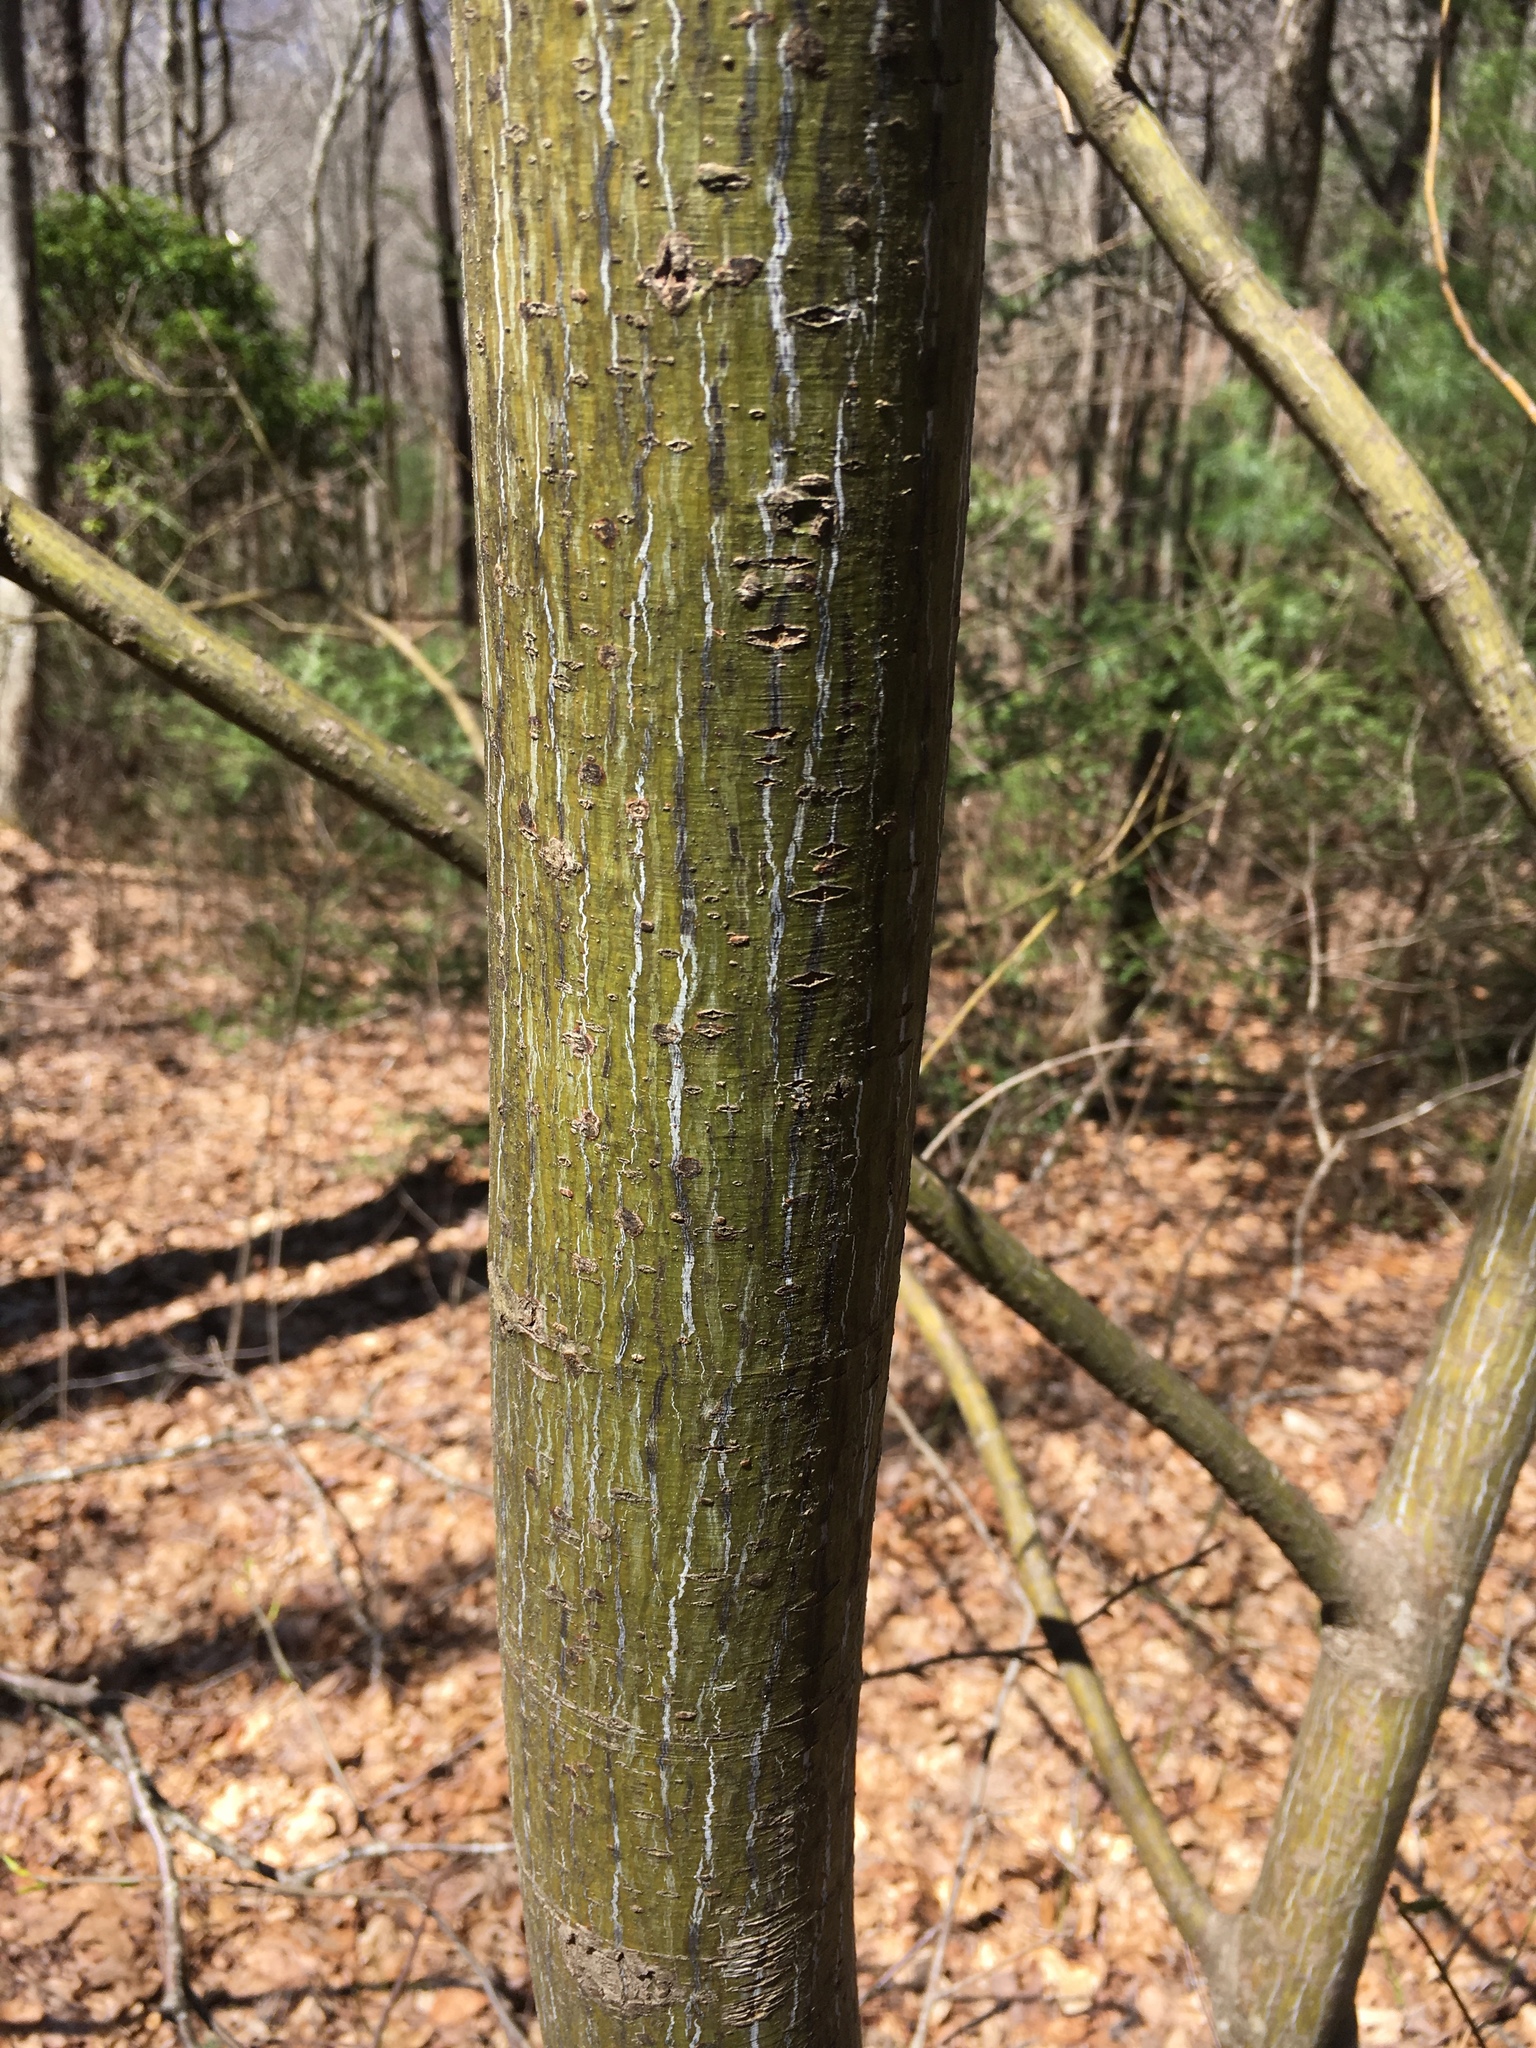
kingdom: Plantae
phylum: Tracheophyta
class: Magnoliopsida
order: Sapindales
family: Sapindaceae
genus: Acer
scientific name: Acer pensylvanicum
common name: Moosewood
